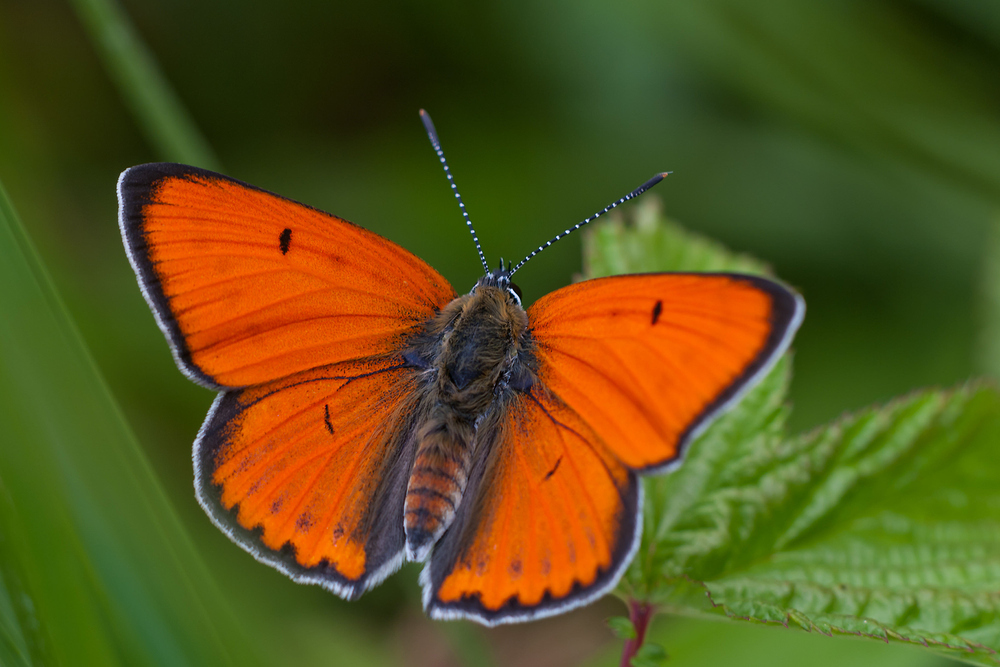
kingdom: Animalia
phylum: Arthropoda
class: Insecta
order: Lepidoptera
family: Lycaenidae
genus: Lycaena
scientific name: Lycaena dispar
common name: Large copper
